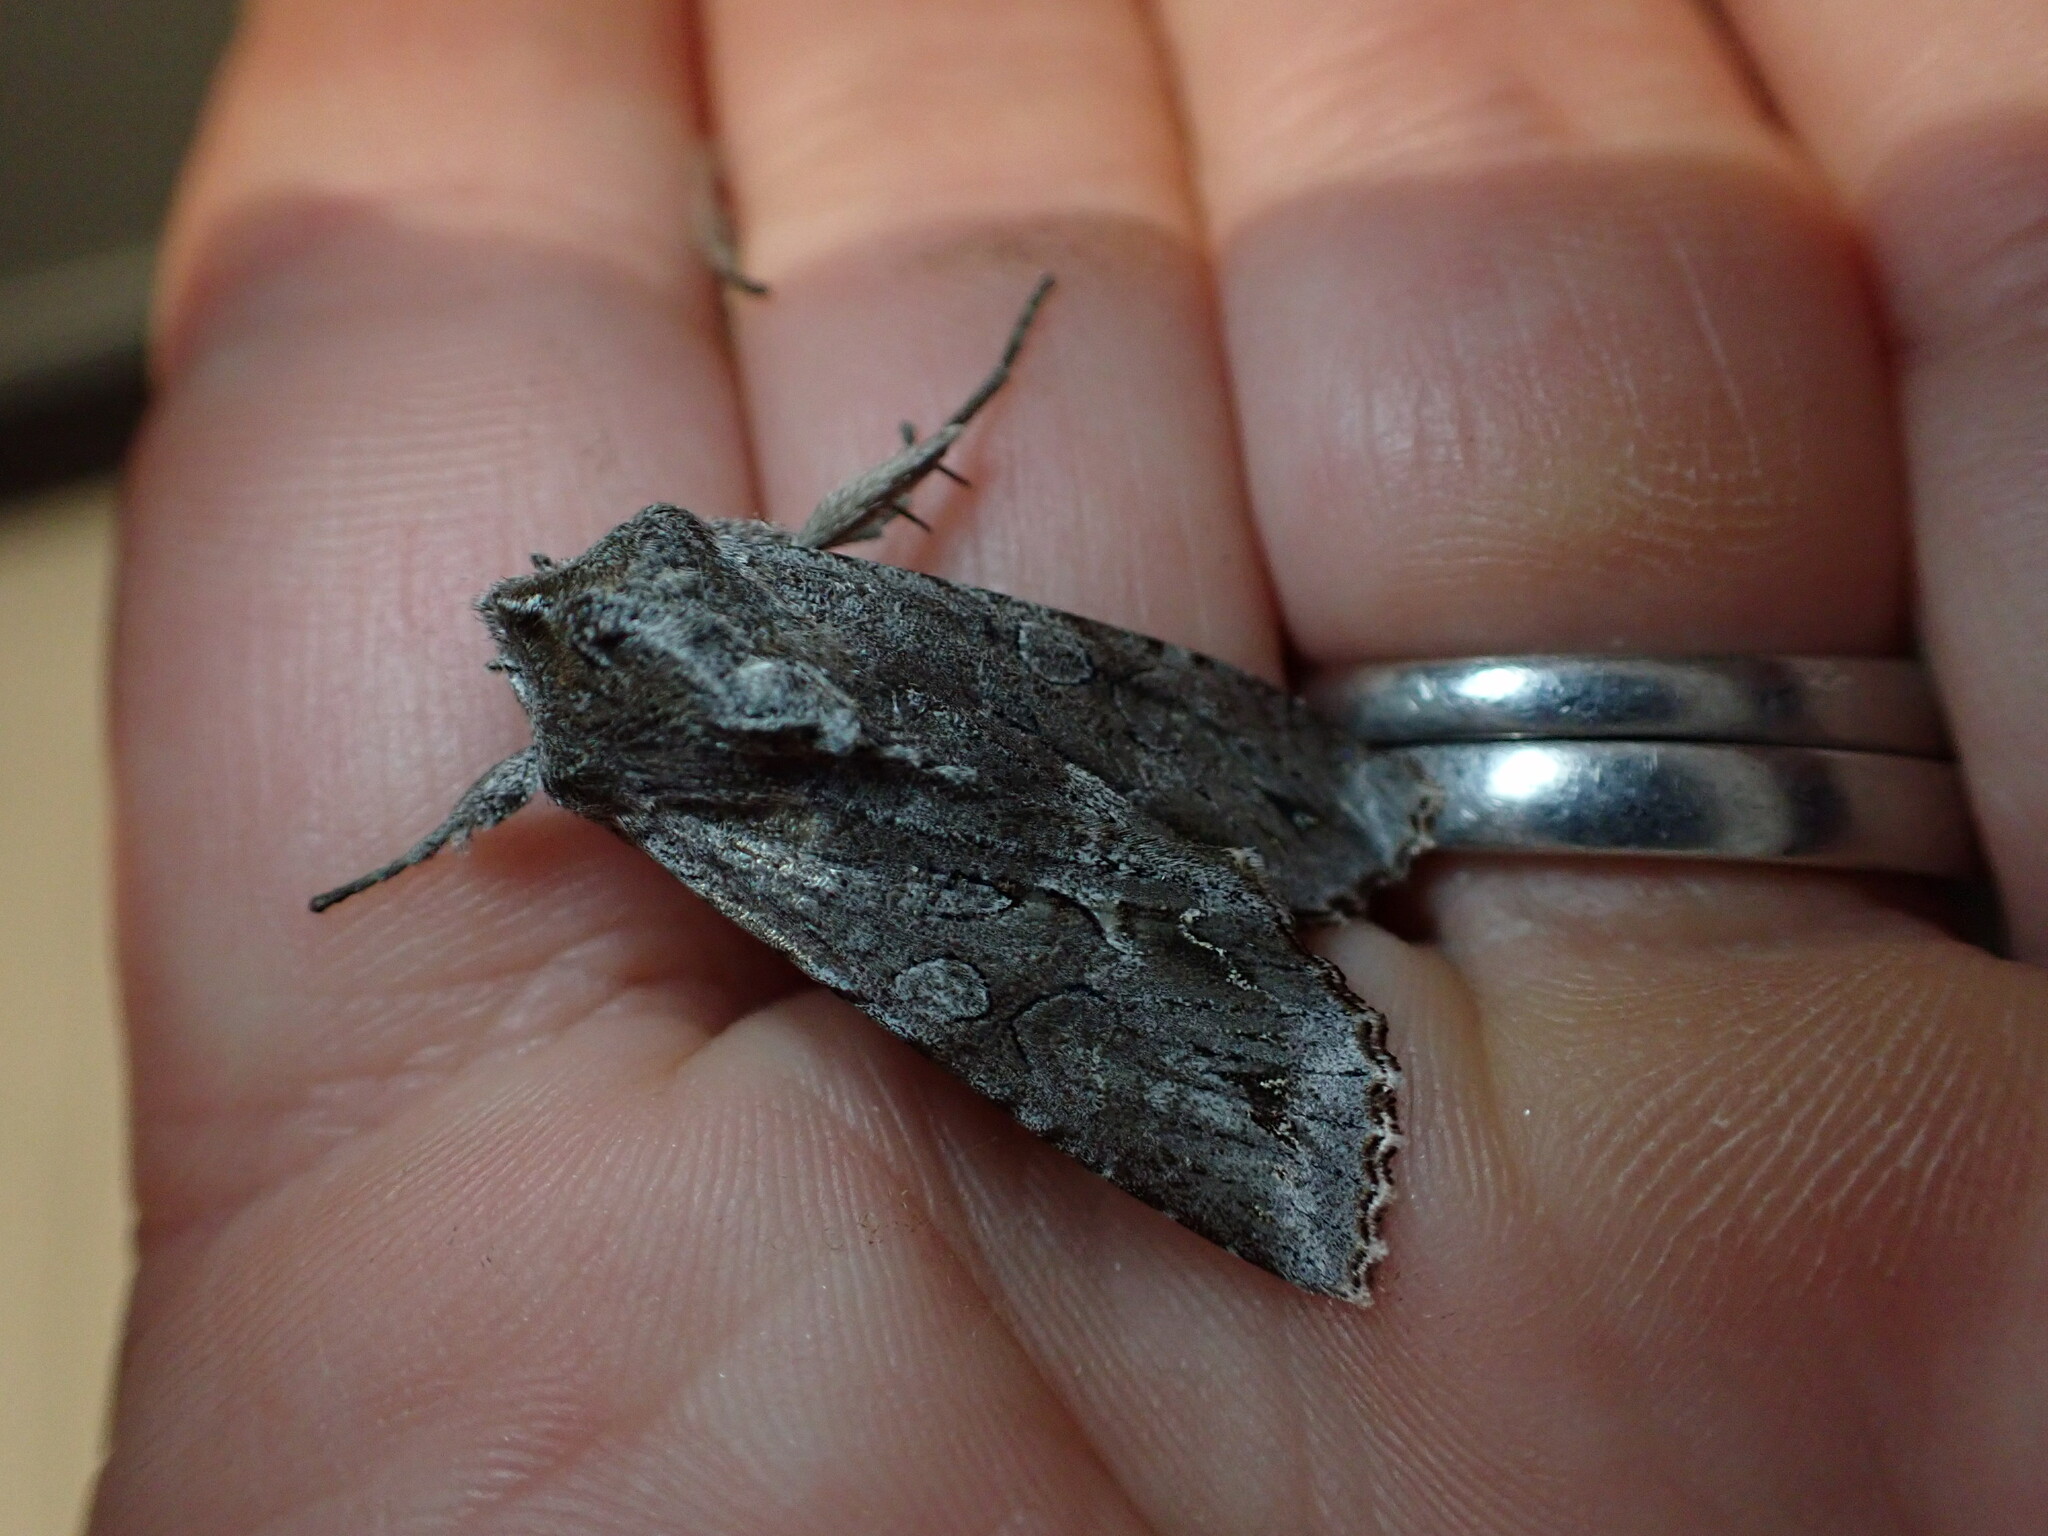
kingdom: Animalia
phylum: Arthropoda
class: Insecta
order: Lepidoptera
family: Noctuidae
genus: Ichneutica
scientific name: Ichneutica
